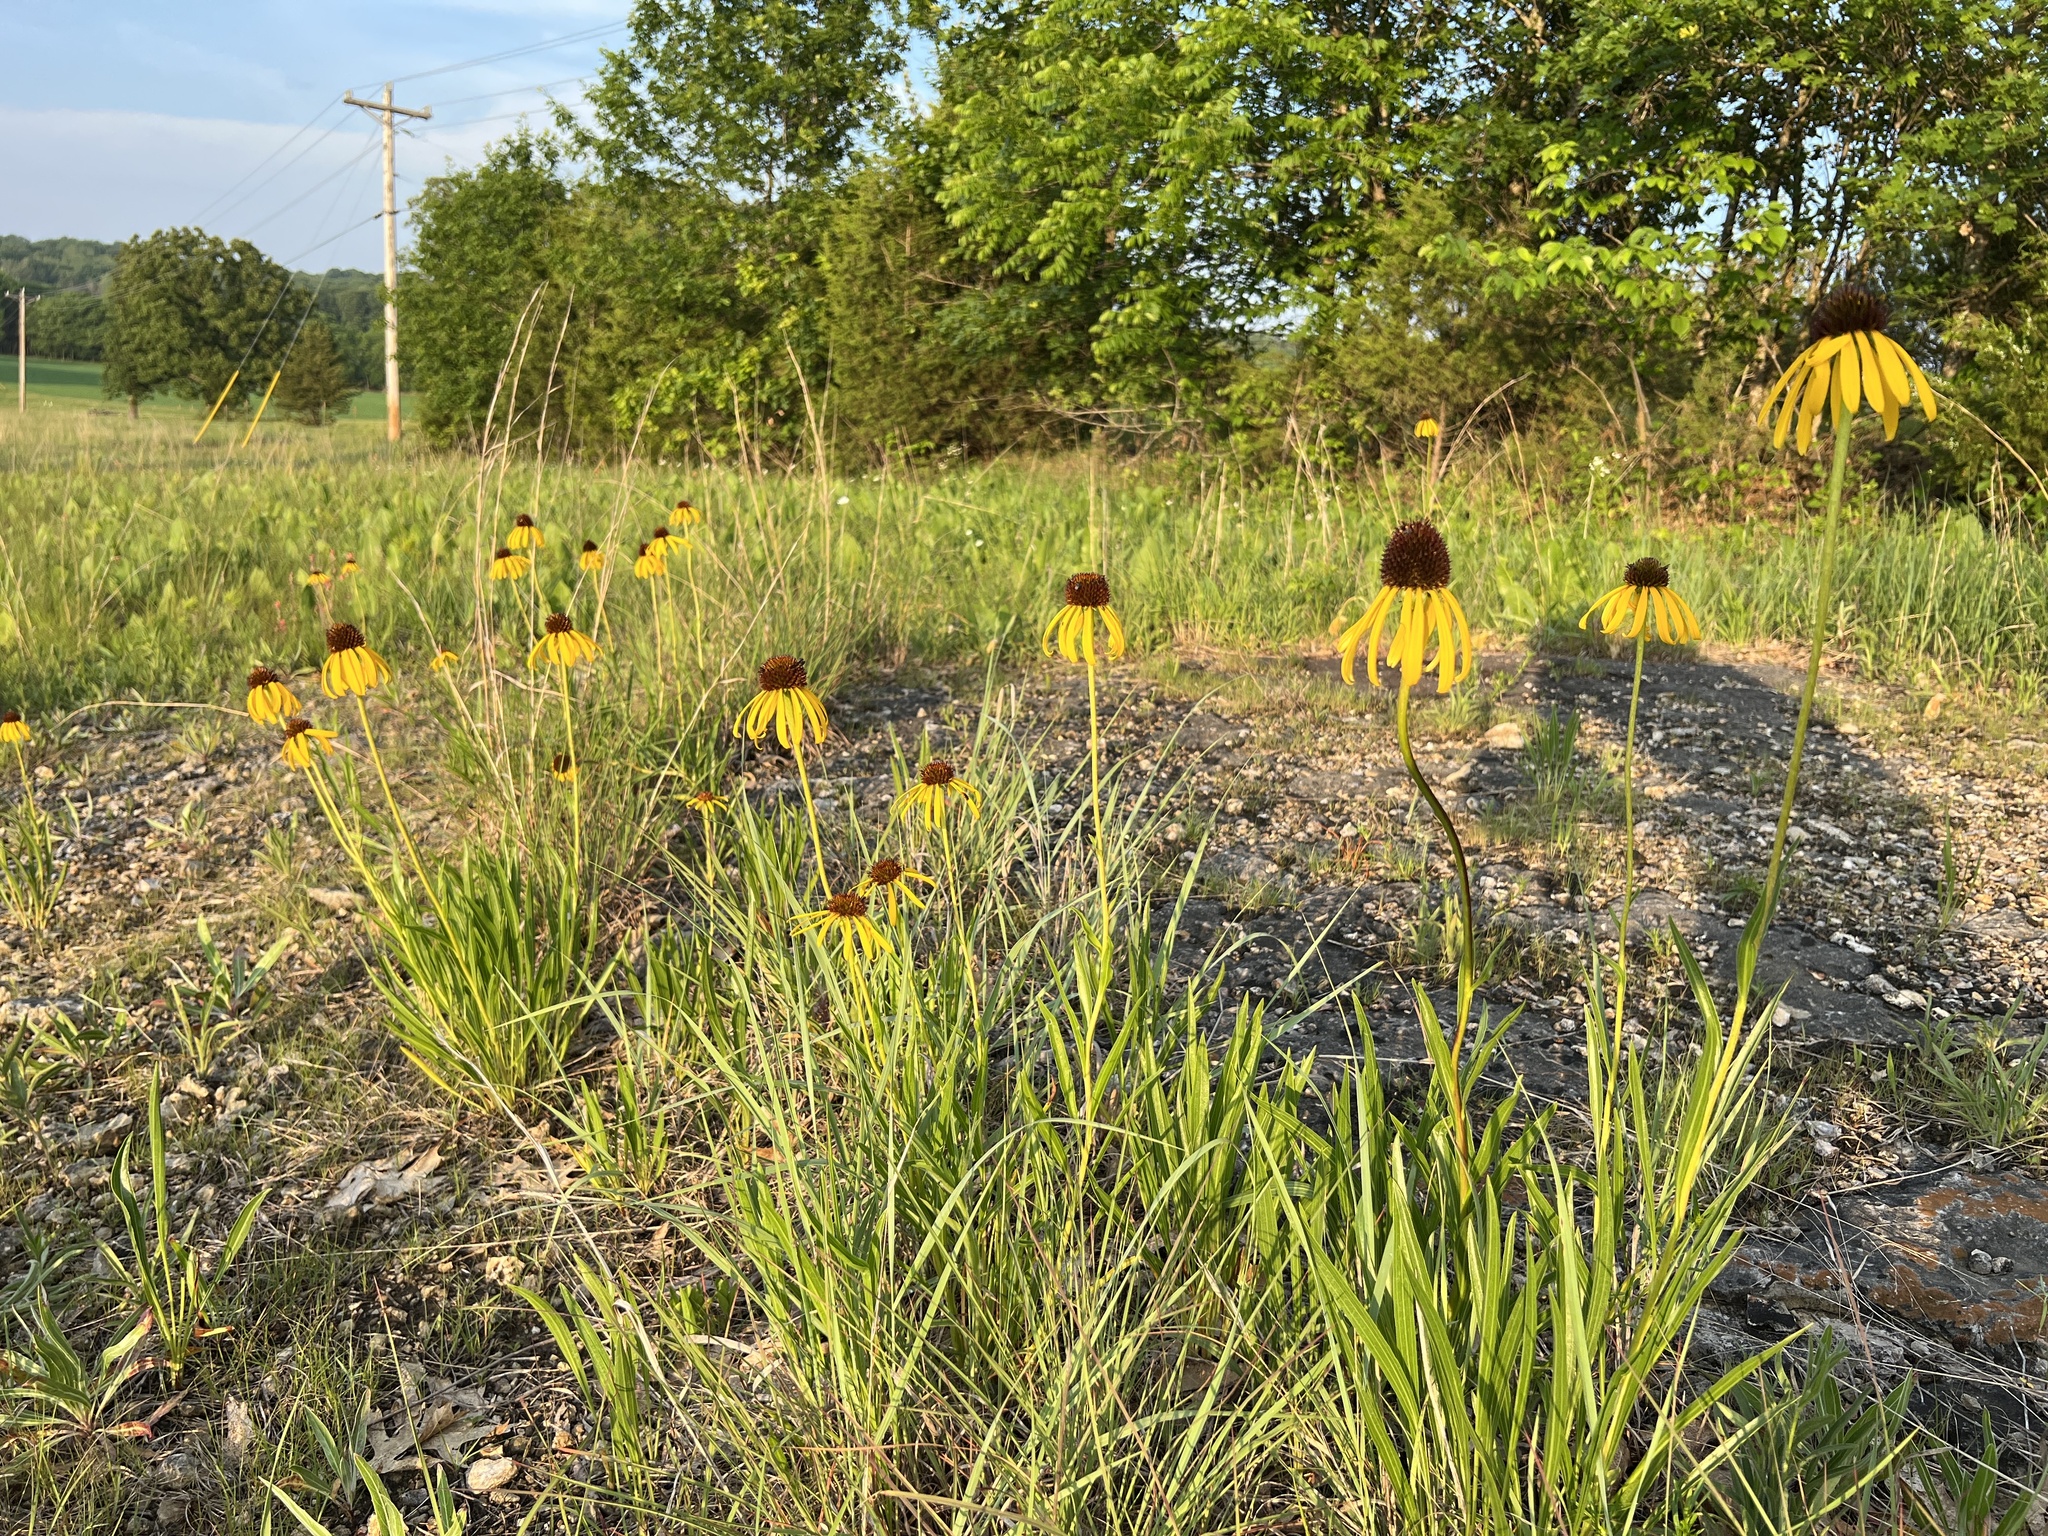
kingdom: Plantae
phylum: Tracheophyta
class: Magnoliopsida
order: Asterales
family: Asteraceae
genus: Echinacea
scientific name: Echinacea paradoxa
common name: Bush's purple-coneflower
